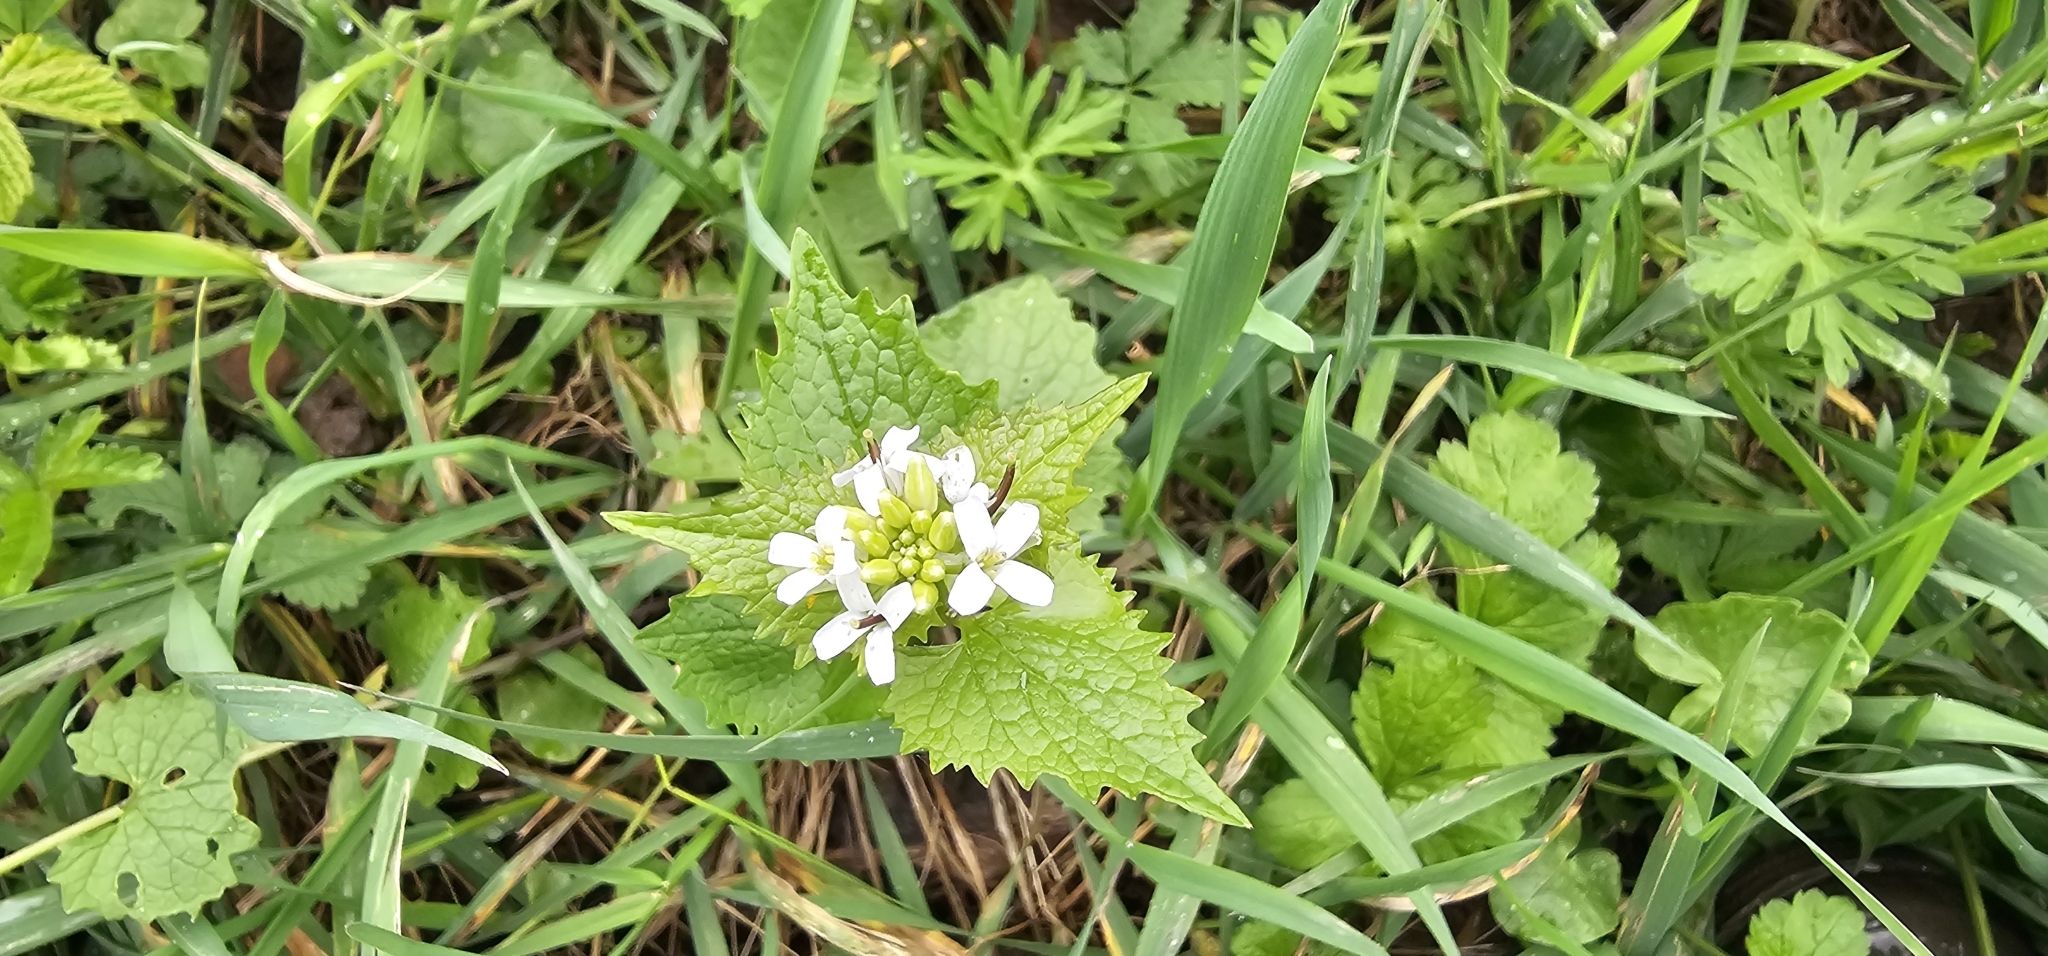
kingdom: Plantae
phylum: Tracheophyta
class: Magnoliopsida
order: Brassicales
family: Brassicaceae
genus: Alliaria
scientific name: Alliaria petiolata
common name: Garlic mustard
